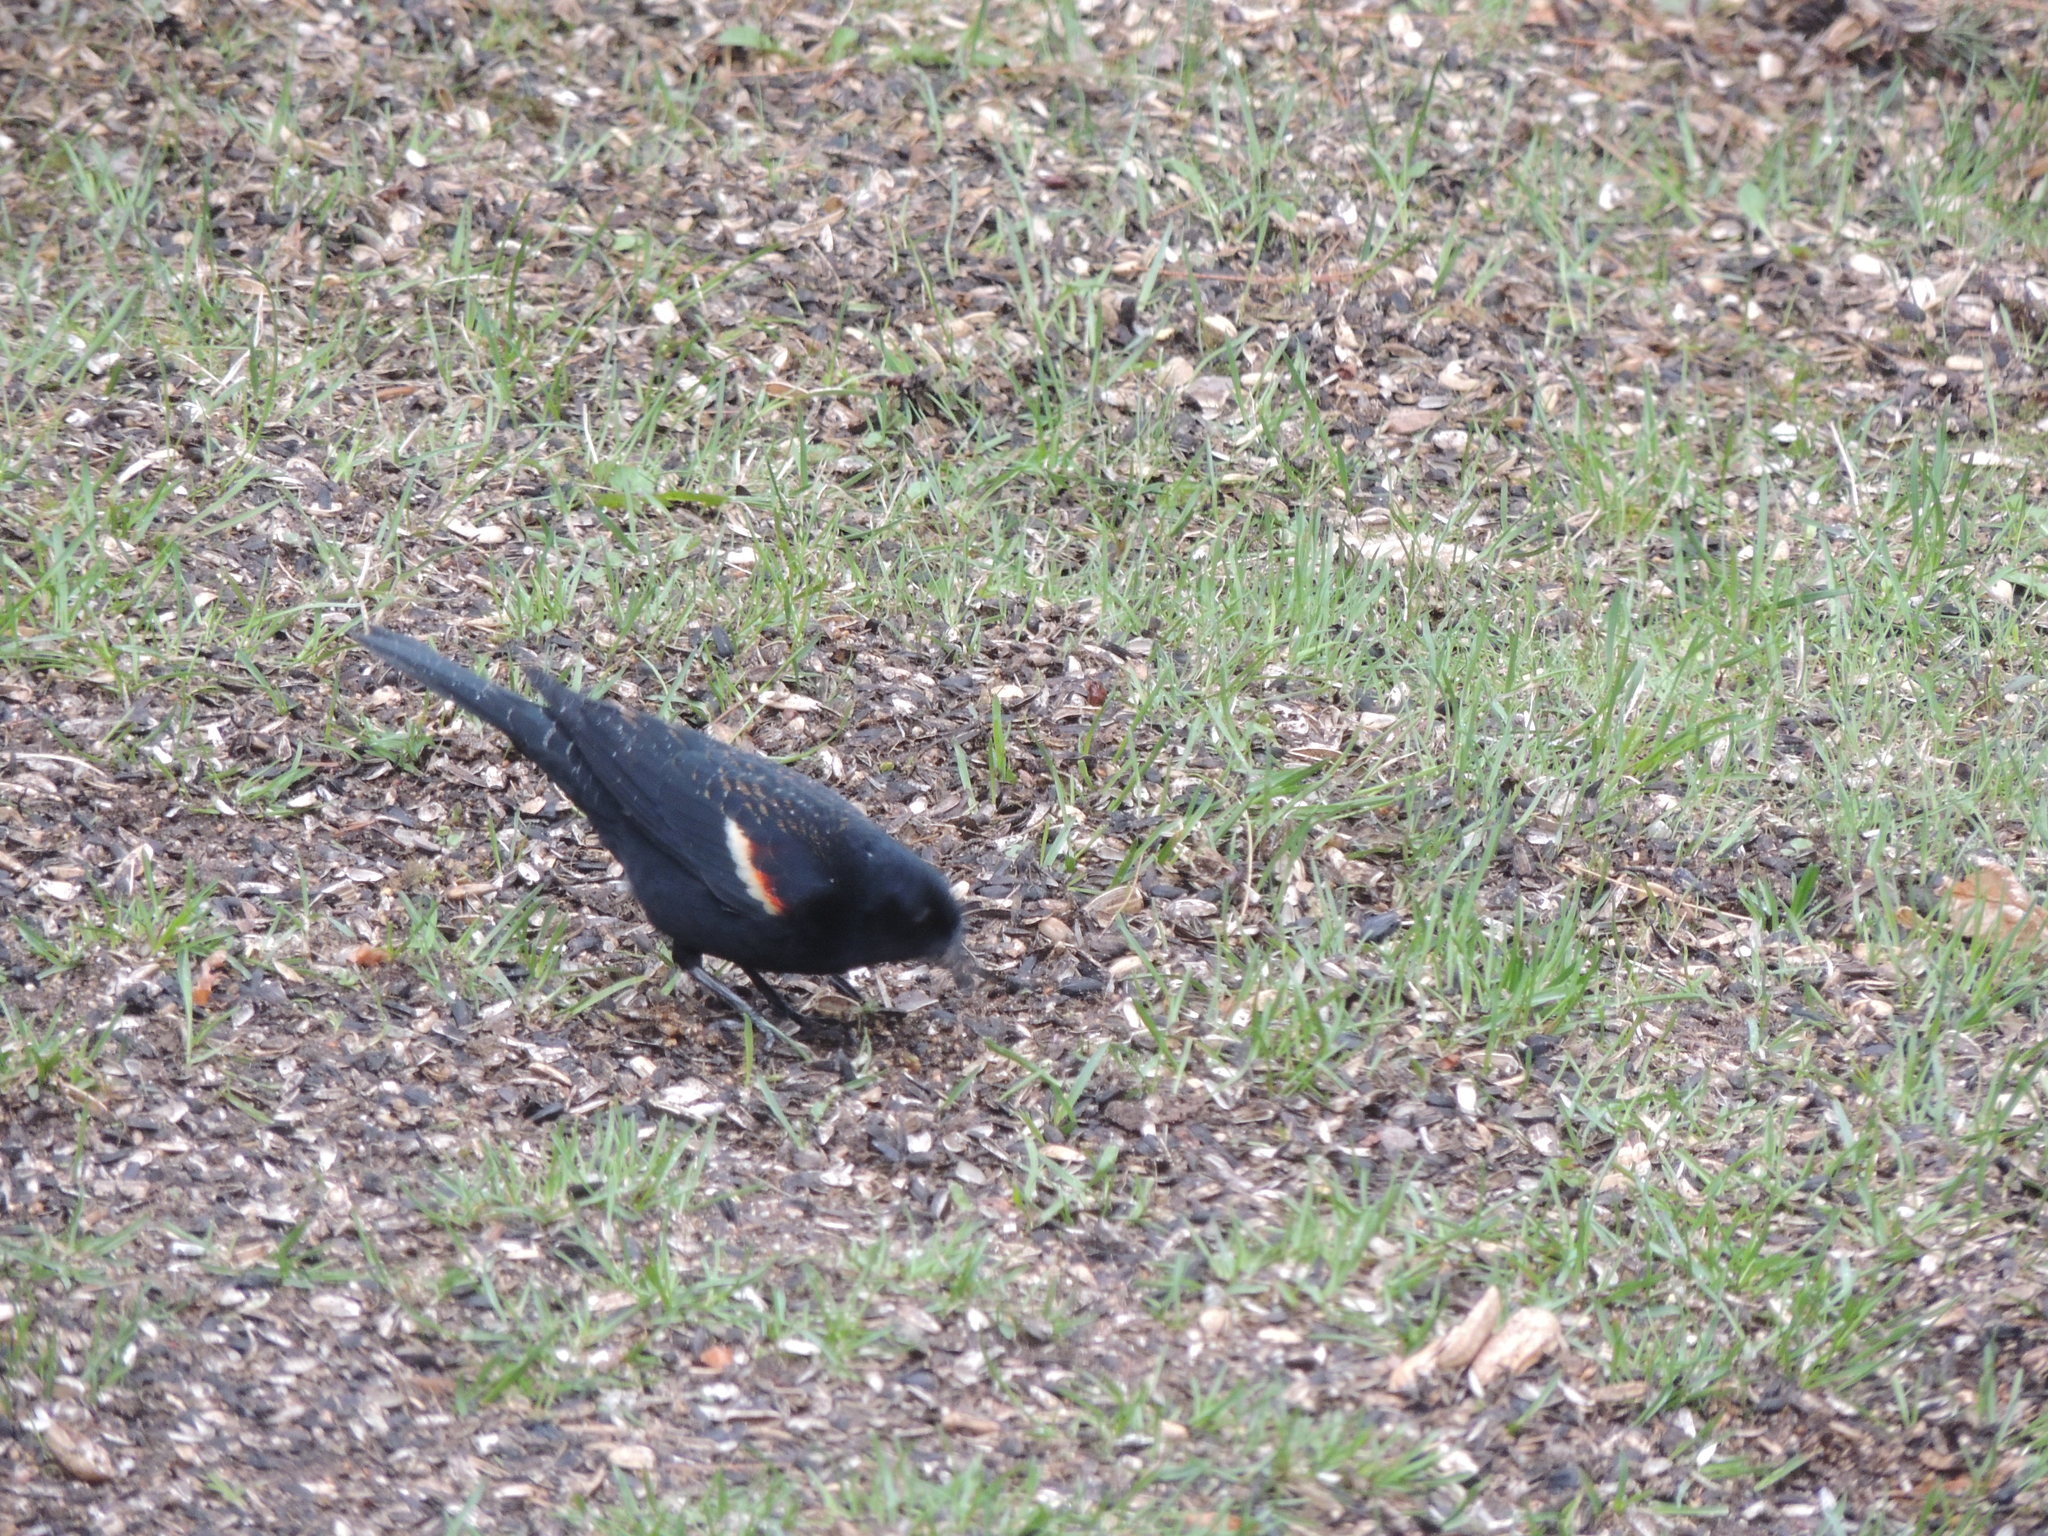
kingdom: Animalia
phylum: Chordata
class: Aves
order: Passeriformes
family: Icteridae
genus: Agelaius
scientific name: Agelaius phoeniceus
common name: Red-winged blackbird
